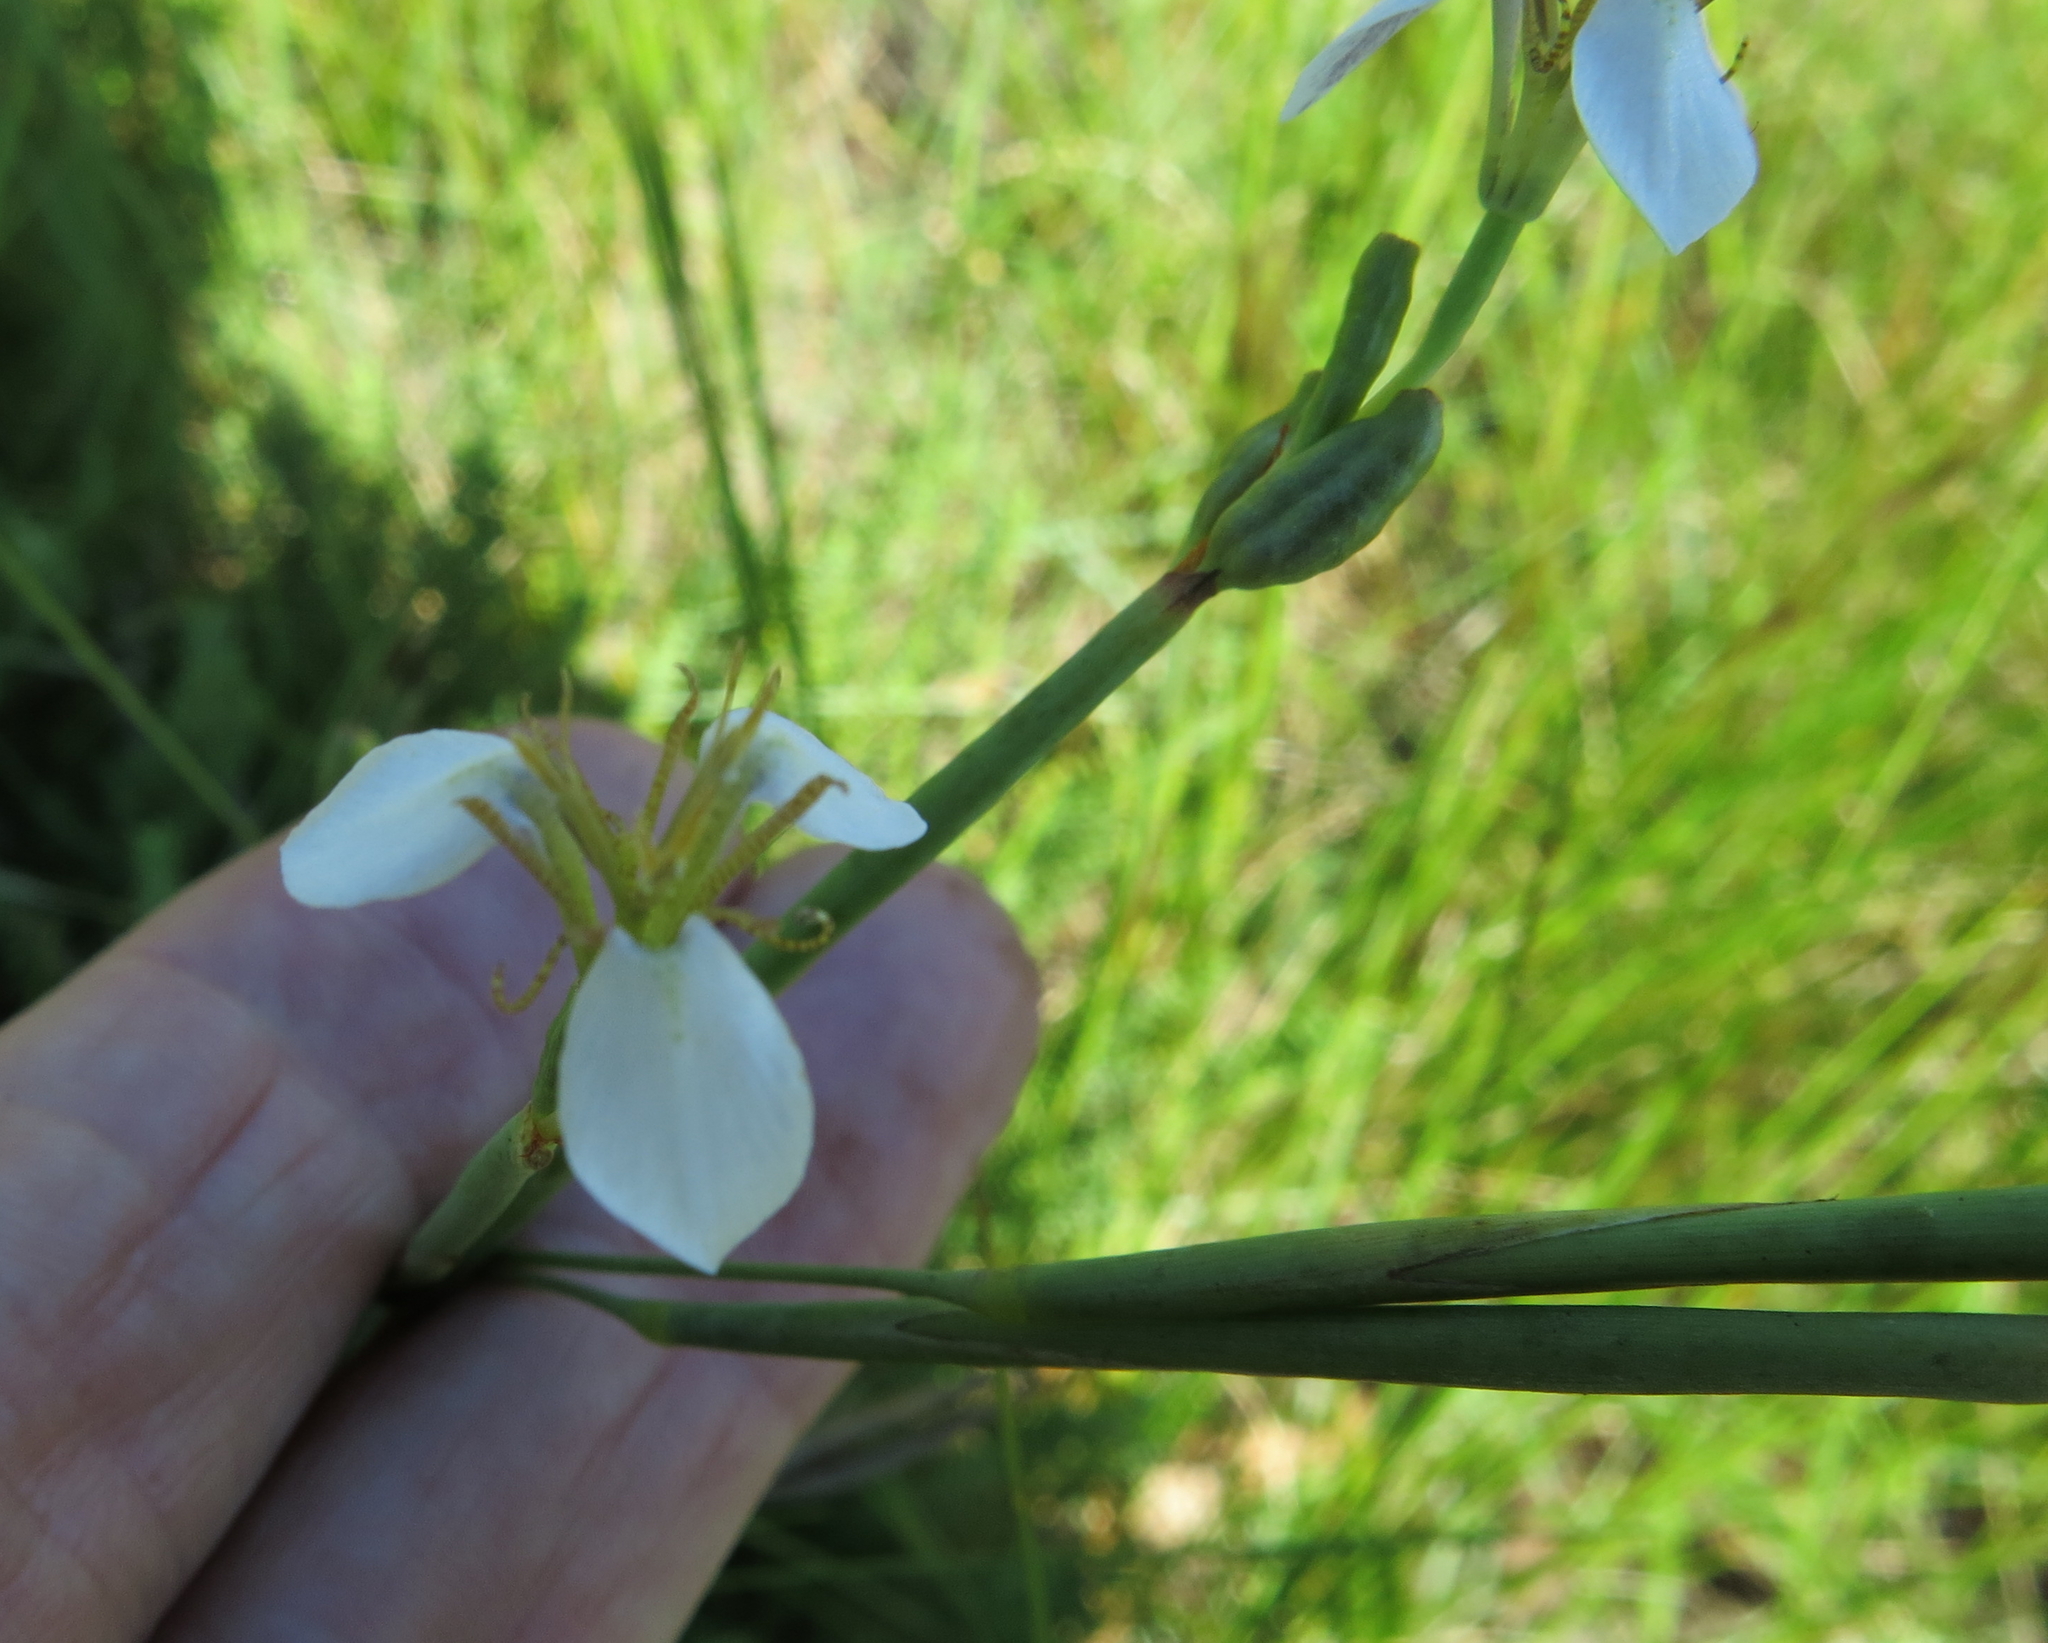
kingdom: Plantae
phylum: Tracheophyta
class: Liliopsida
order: Asparagales
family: Iridaceae
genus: Moraea
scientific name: Moraea brevistyla
